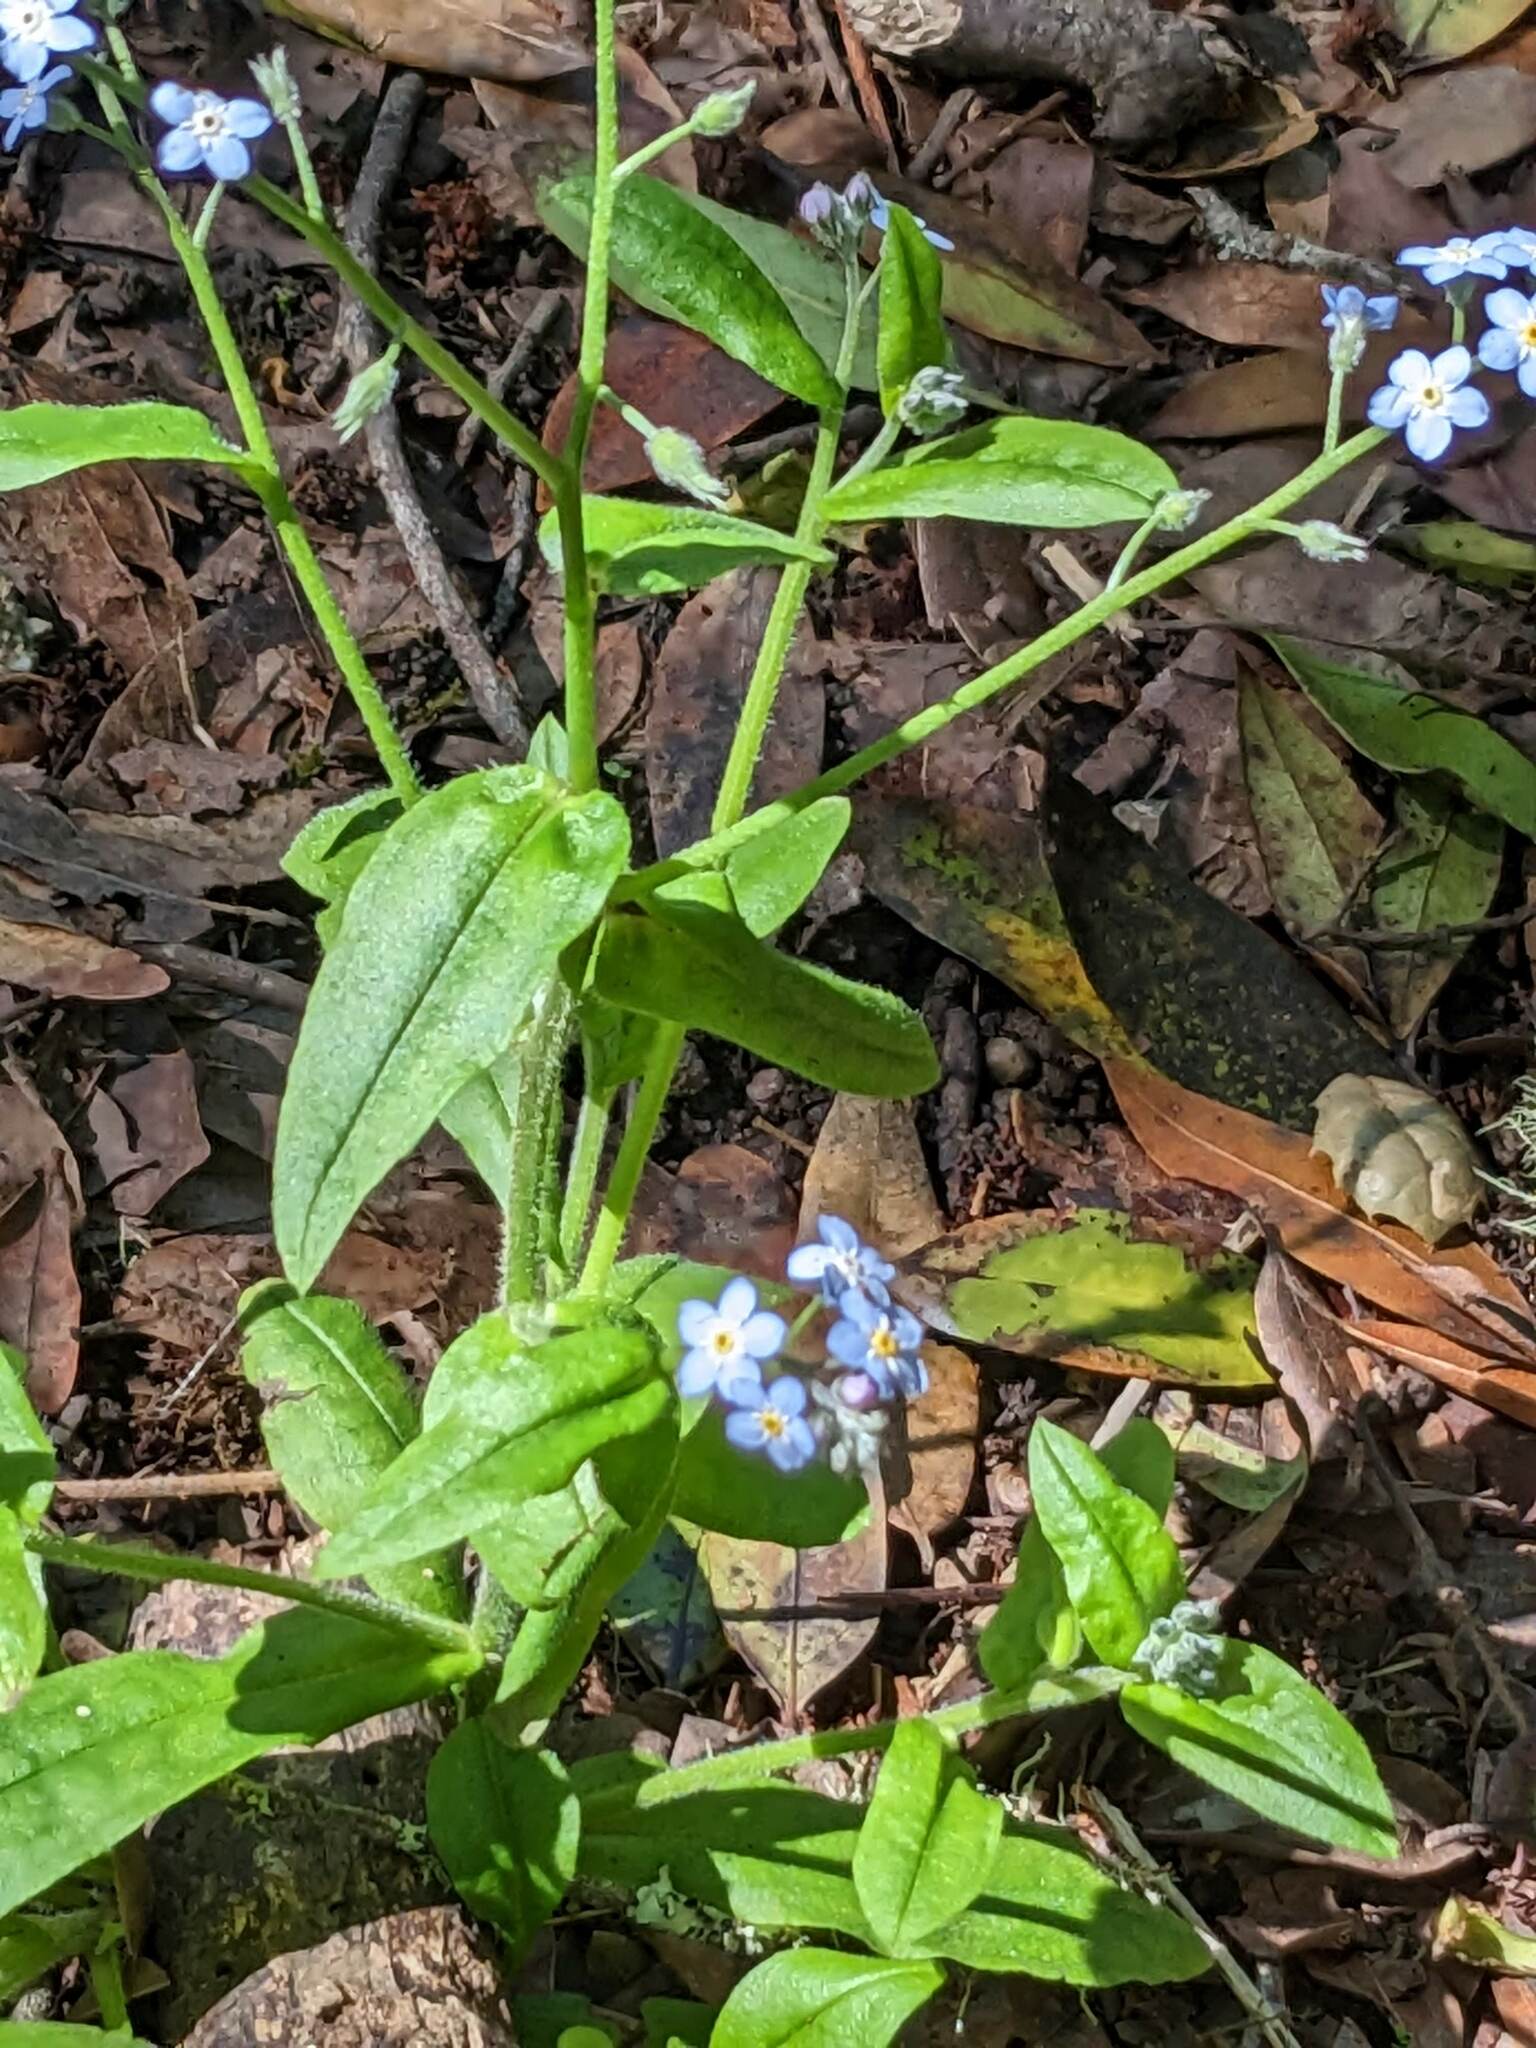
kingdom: Plantae
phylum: Tracheophyta
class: Magnoliopsida
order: Boraginales
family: Boraginaceae
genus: Myosotis
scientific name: Myosotis latifolia
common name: Broadleaf forget-me-not
